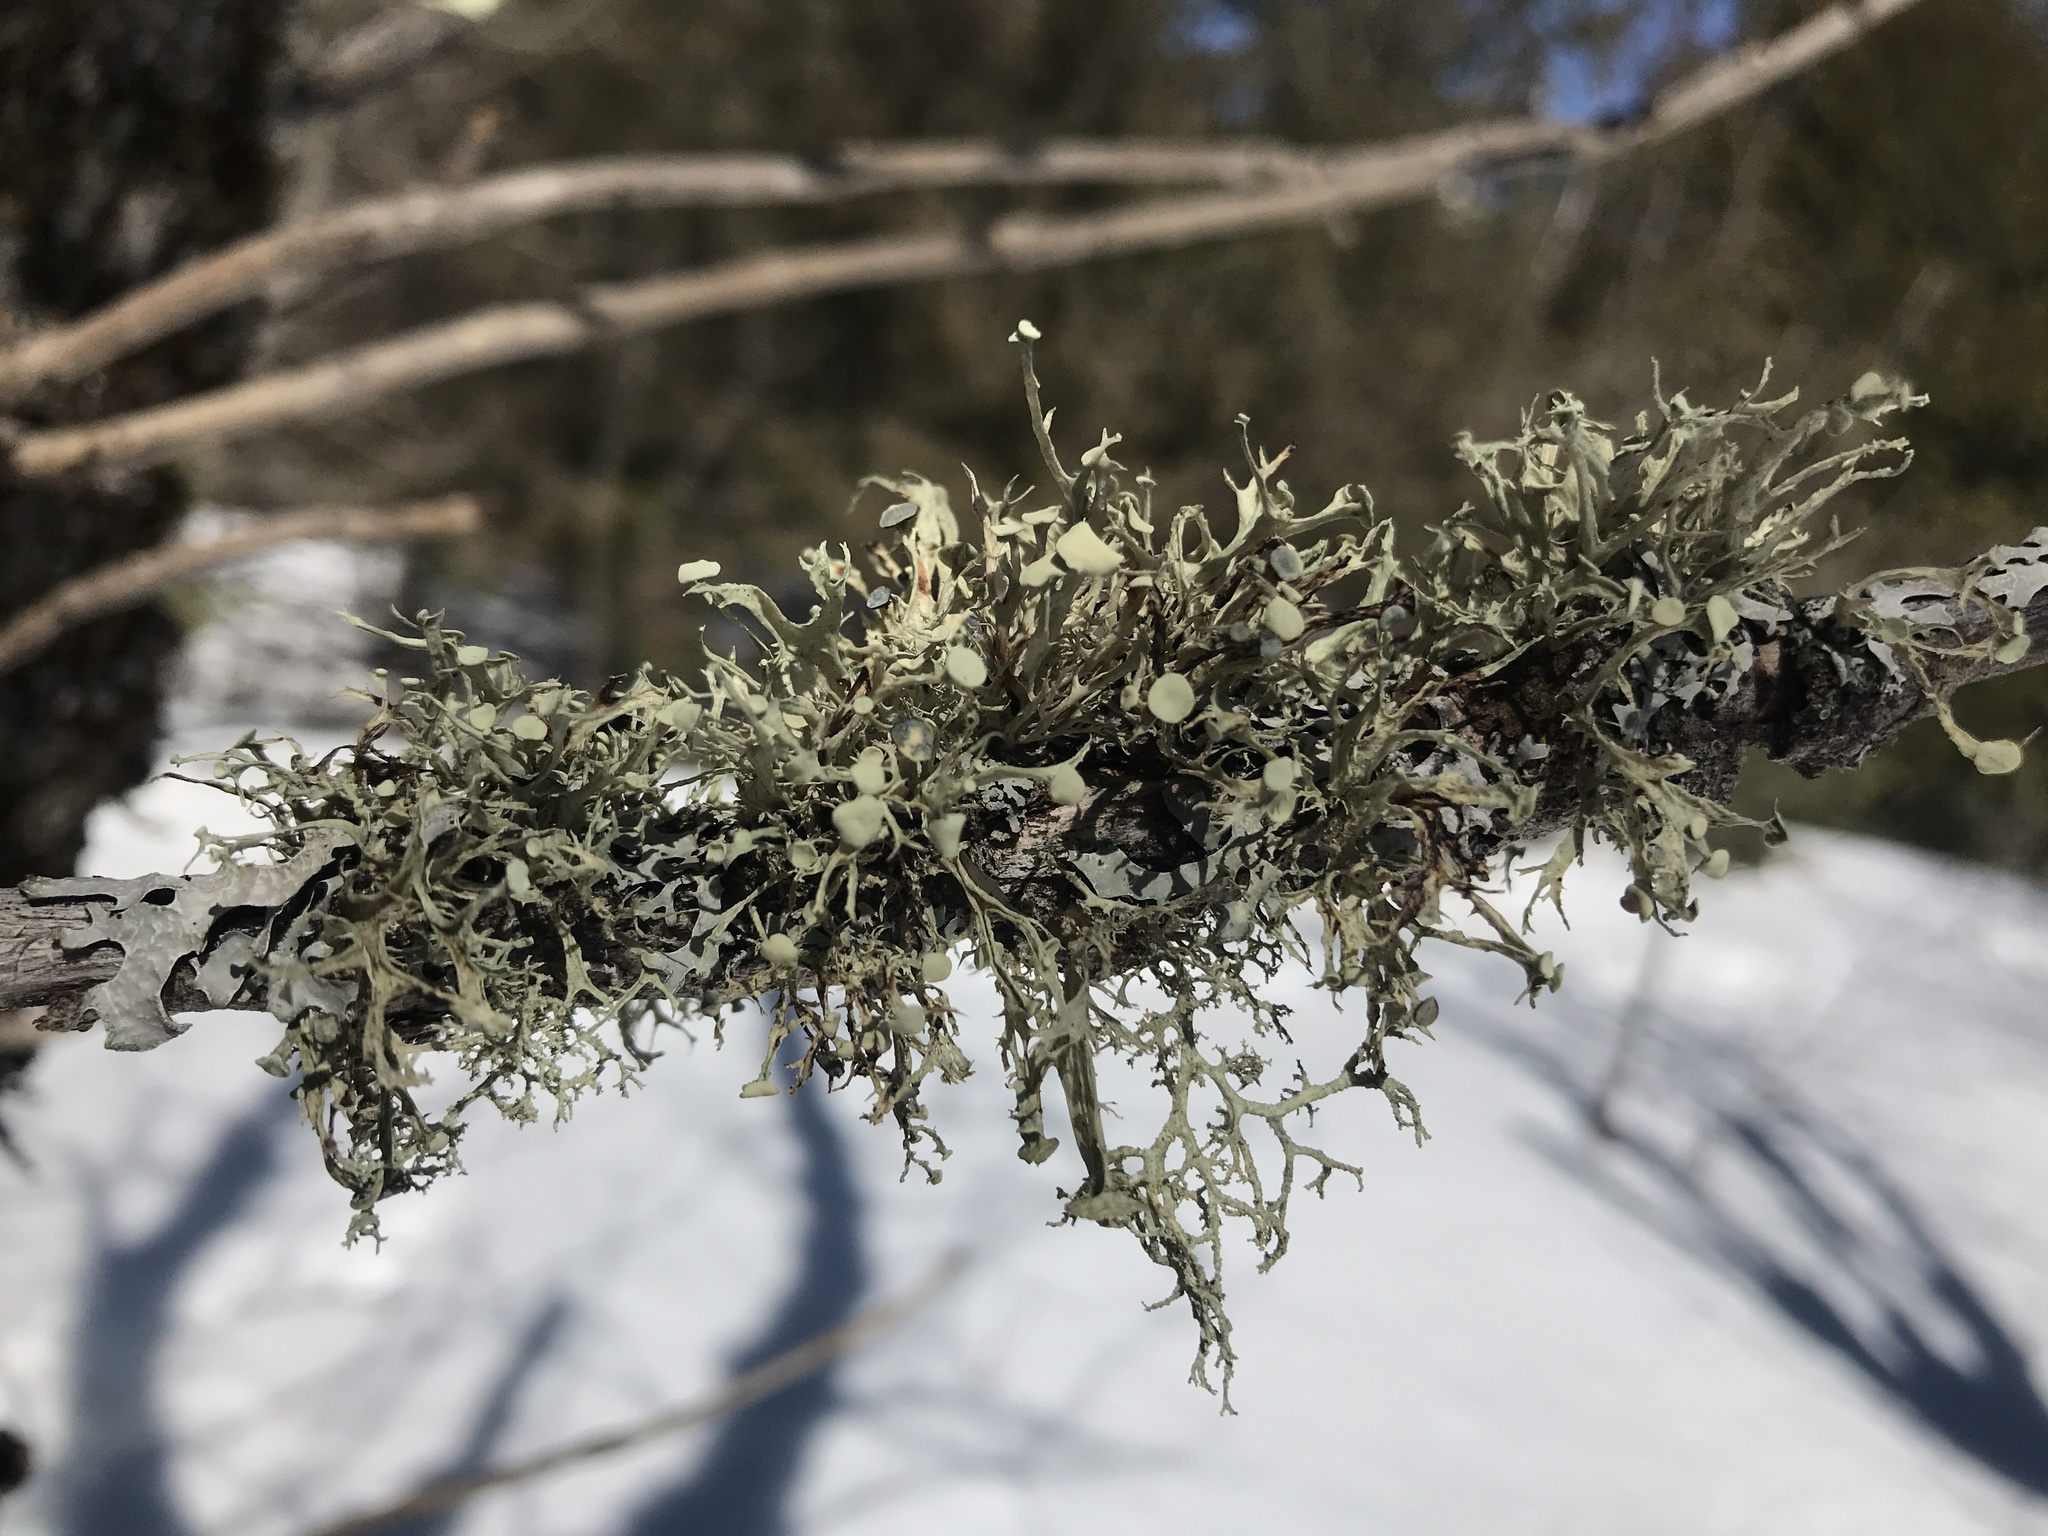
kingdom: Fungi
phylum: Ascomycota
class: Lecanoromycetes
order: Lecanorales
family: Ramalinaceae
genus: Ramalina
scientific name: Ramalina americana
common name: Sinewed bush lichen
